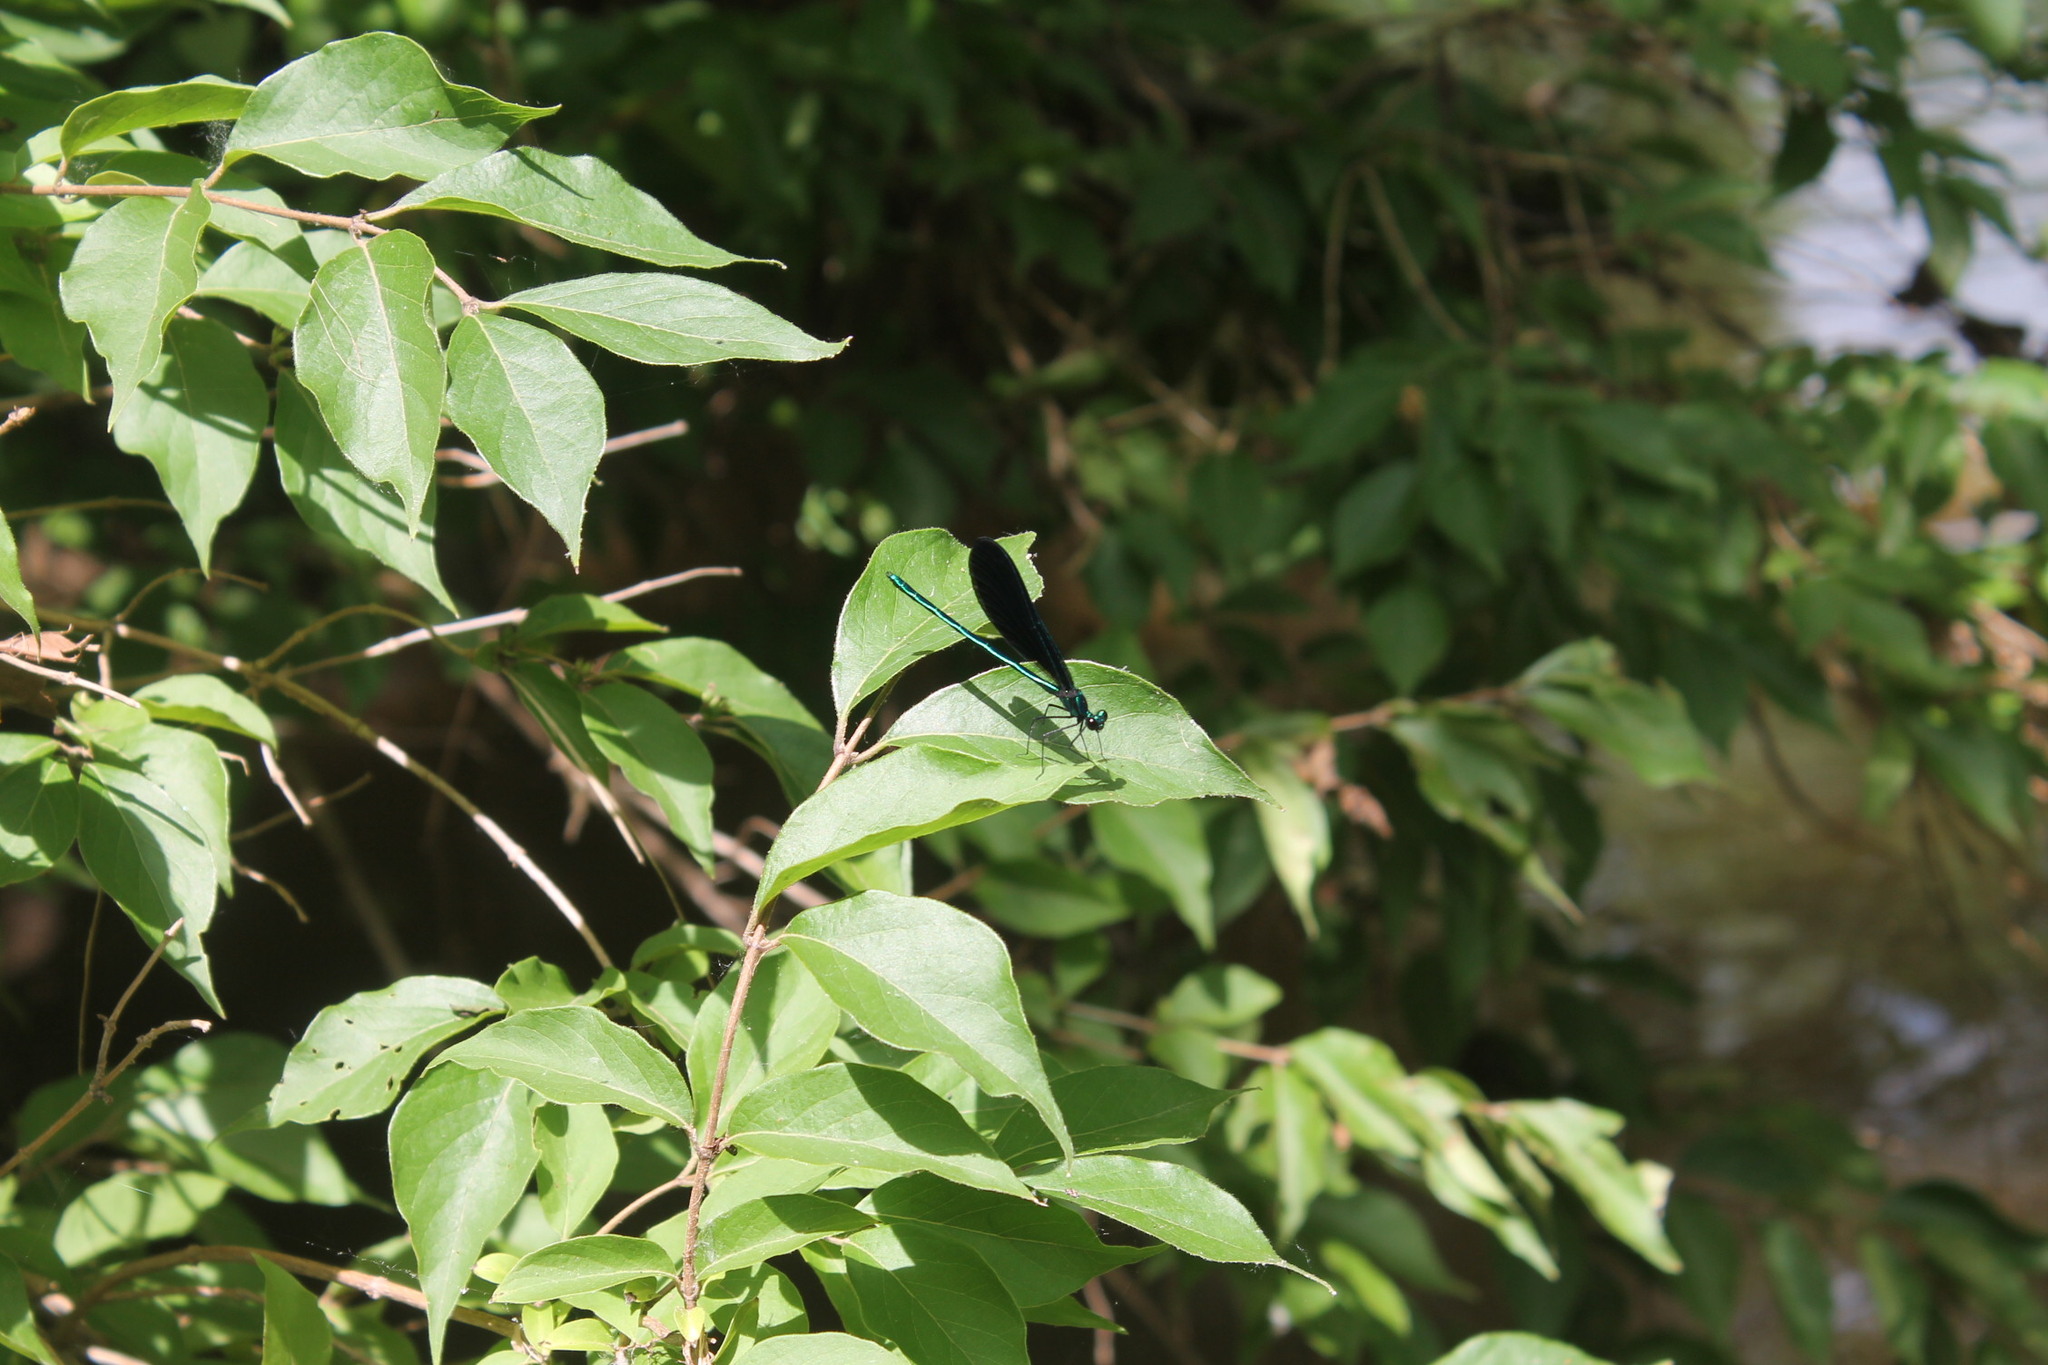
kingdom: Animalia
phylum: Arthropoda
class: Insecta
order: Odonata
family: Calopterygidae
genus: Calopteryx
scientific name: Calopteryx maculata
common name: Ebony jewelwing
